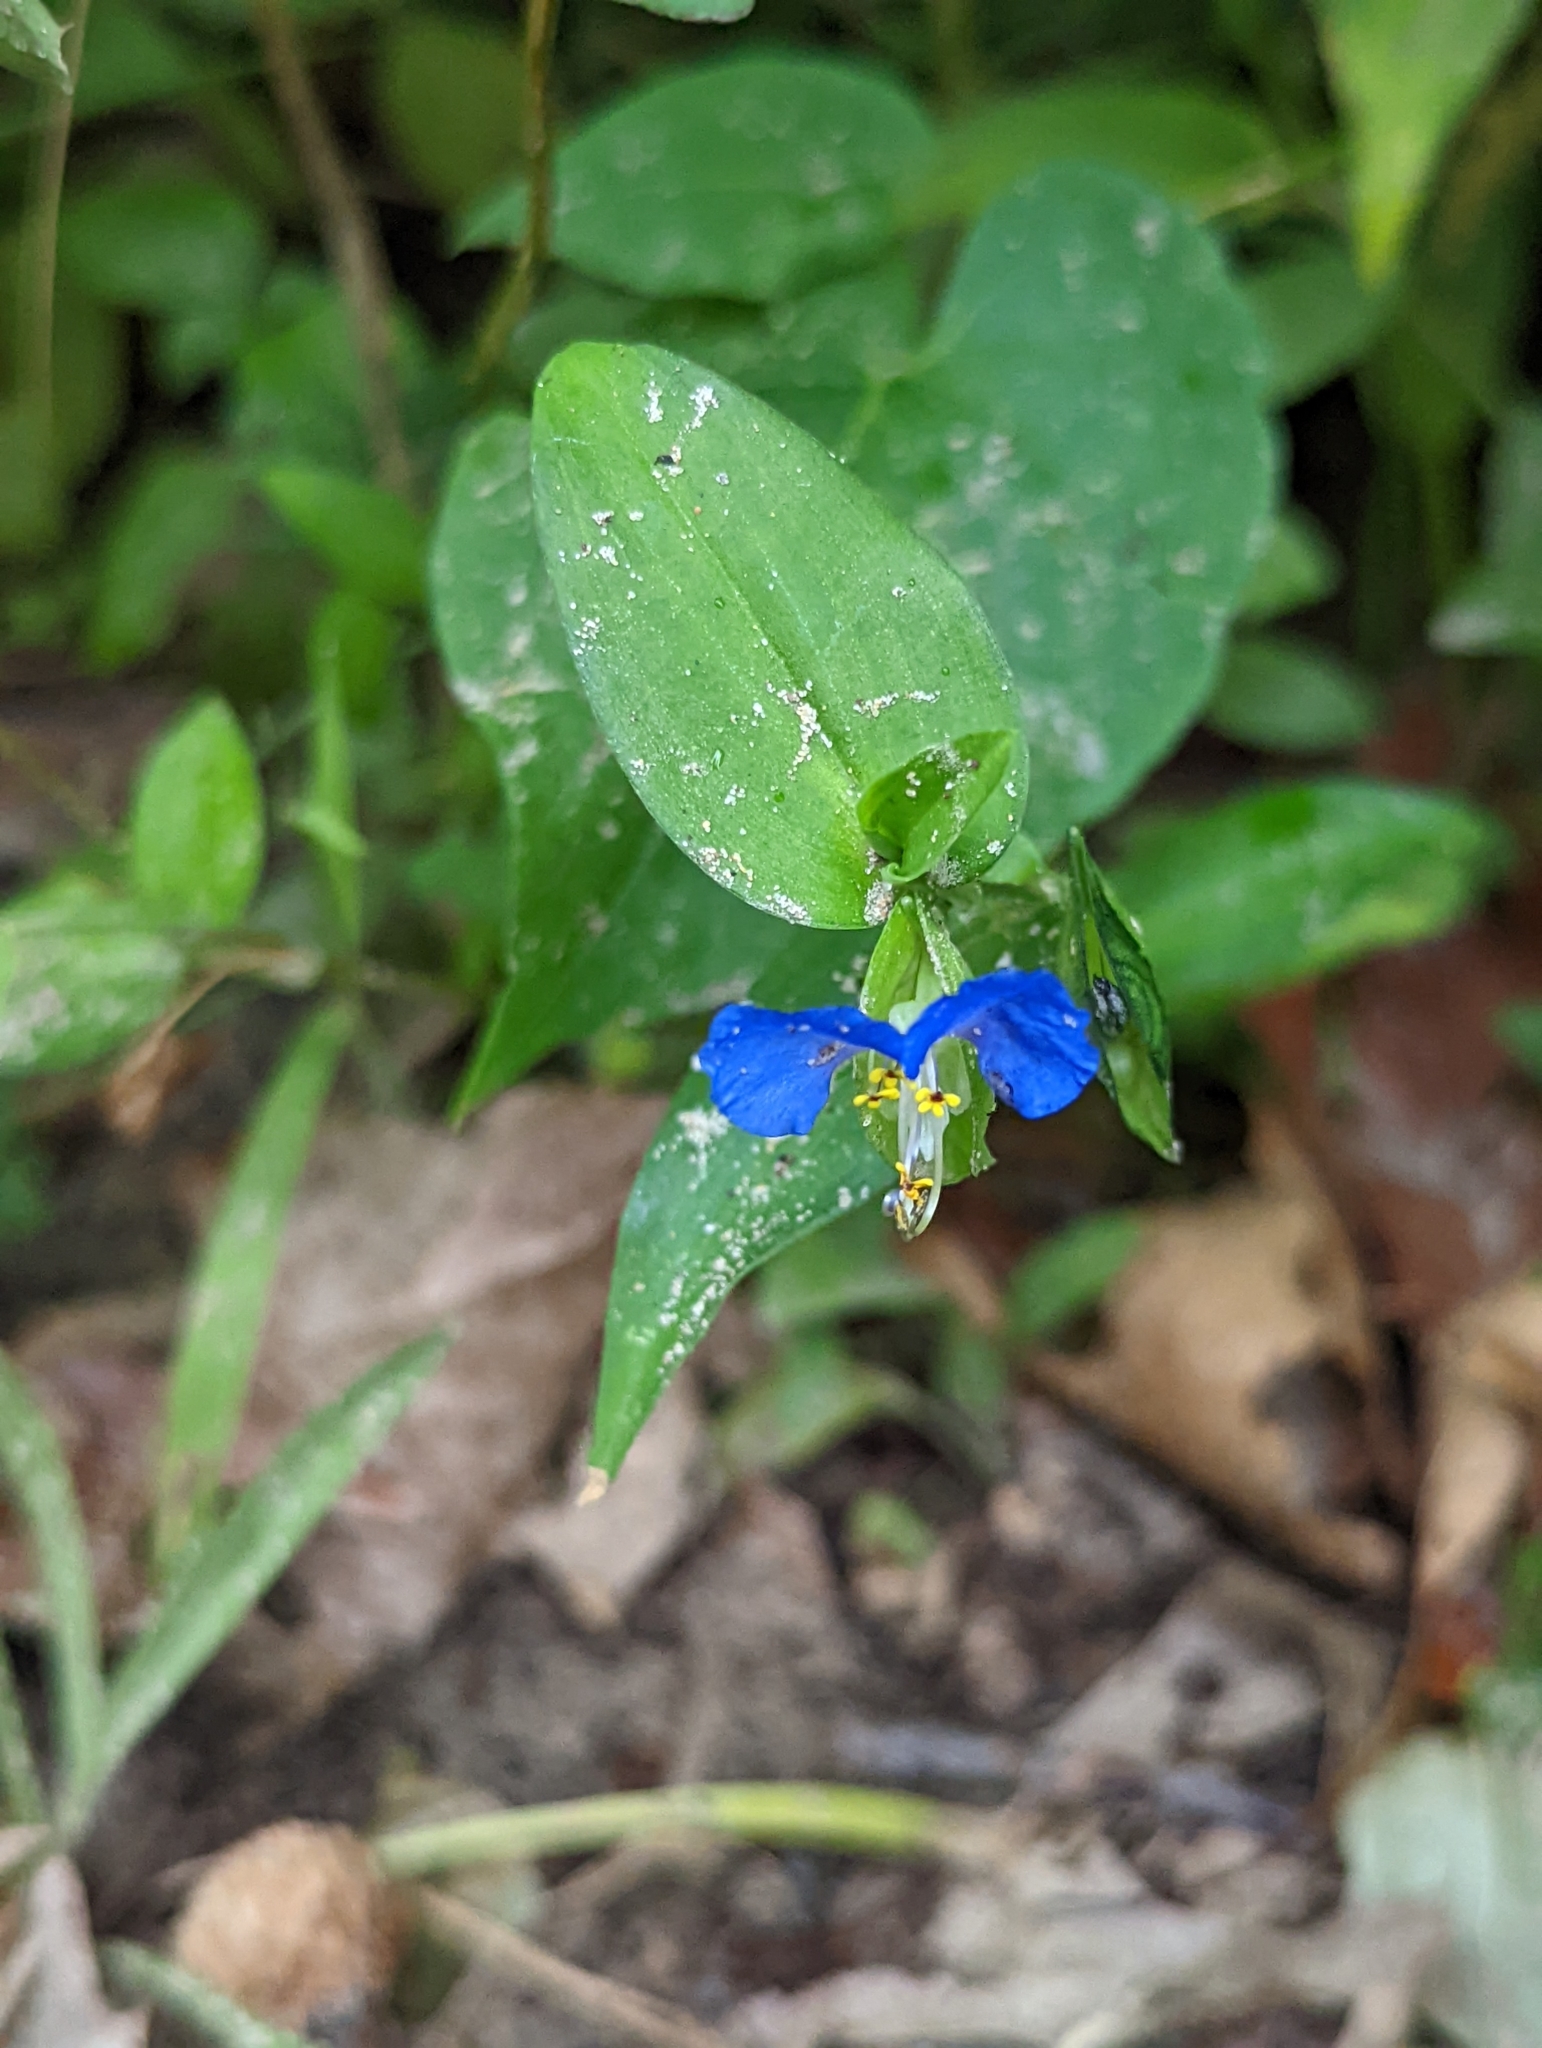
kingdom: Plantae
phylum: Tracheophyta
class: Liliopsida
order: Commelinales
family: Commelinaceae
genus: Commelina
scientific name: Commelina communis
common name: Asiatic dayflower
